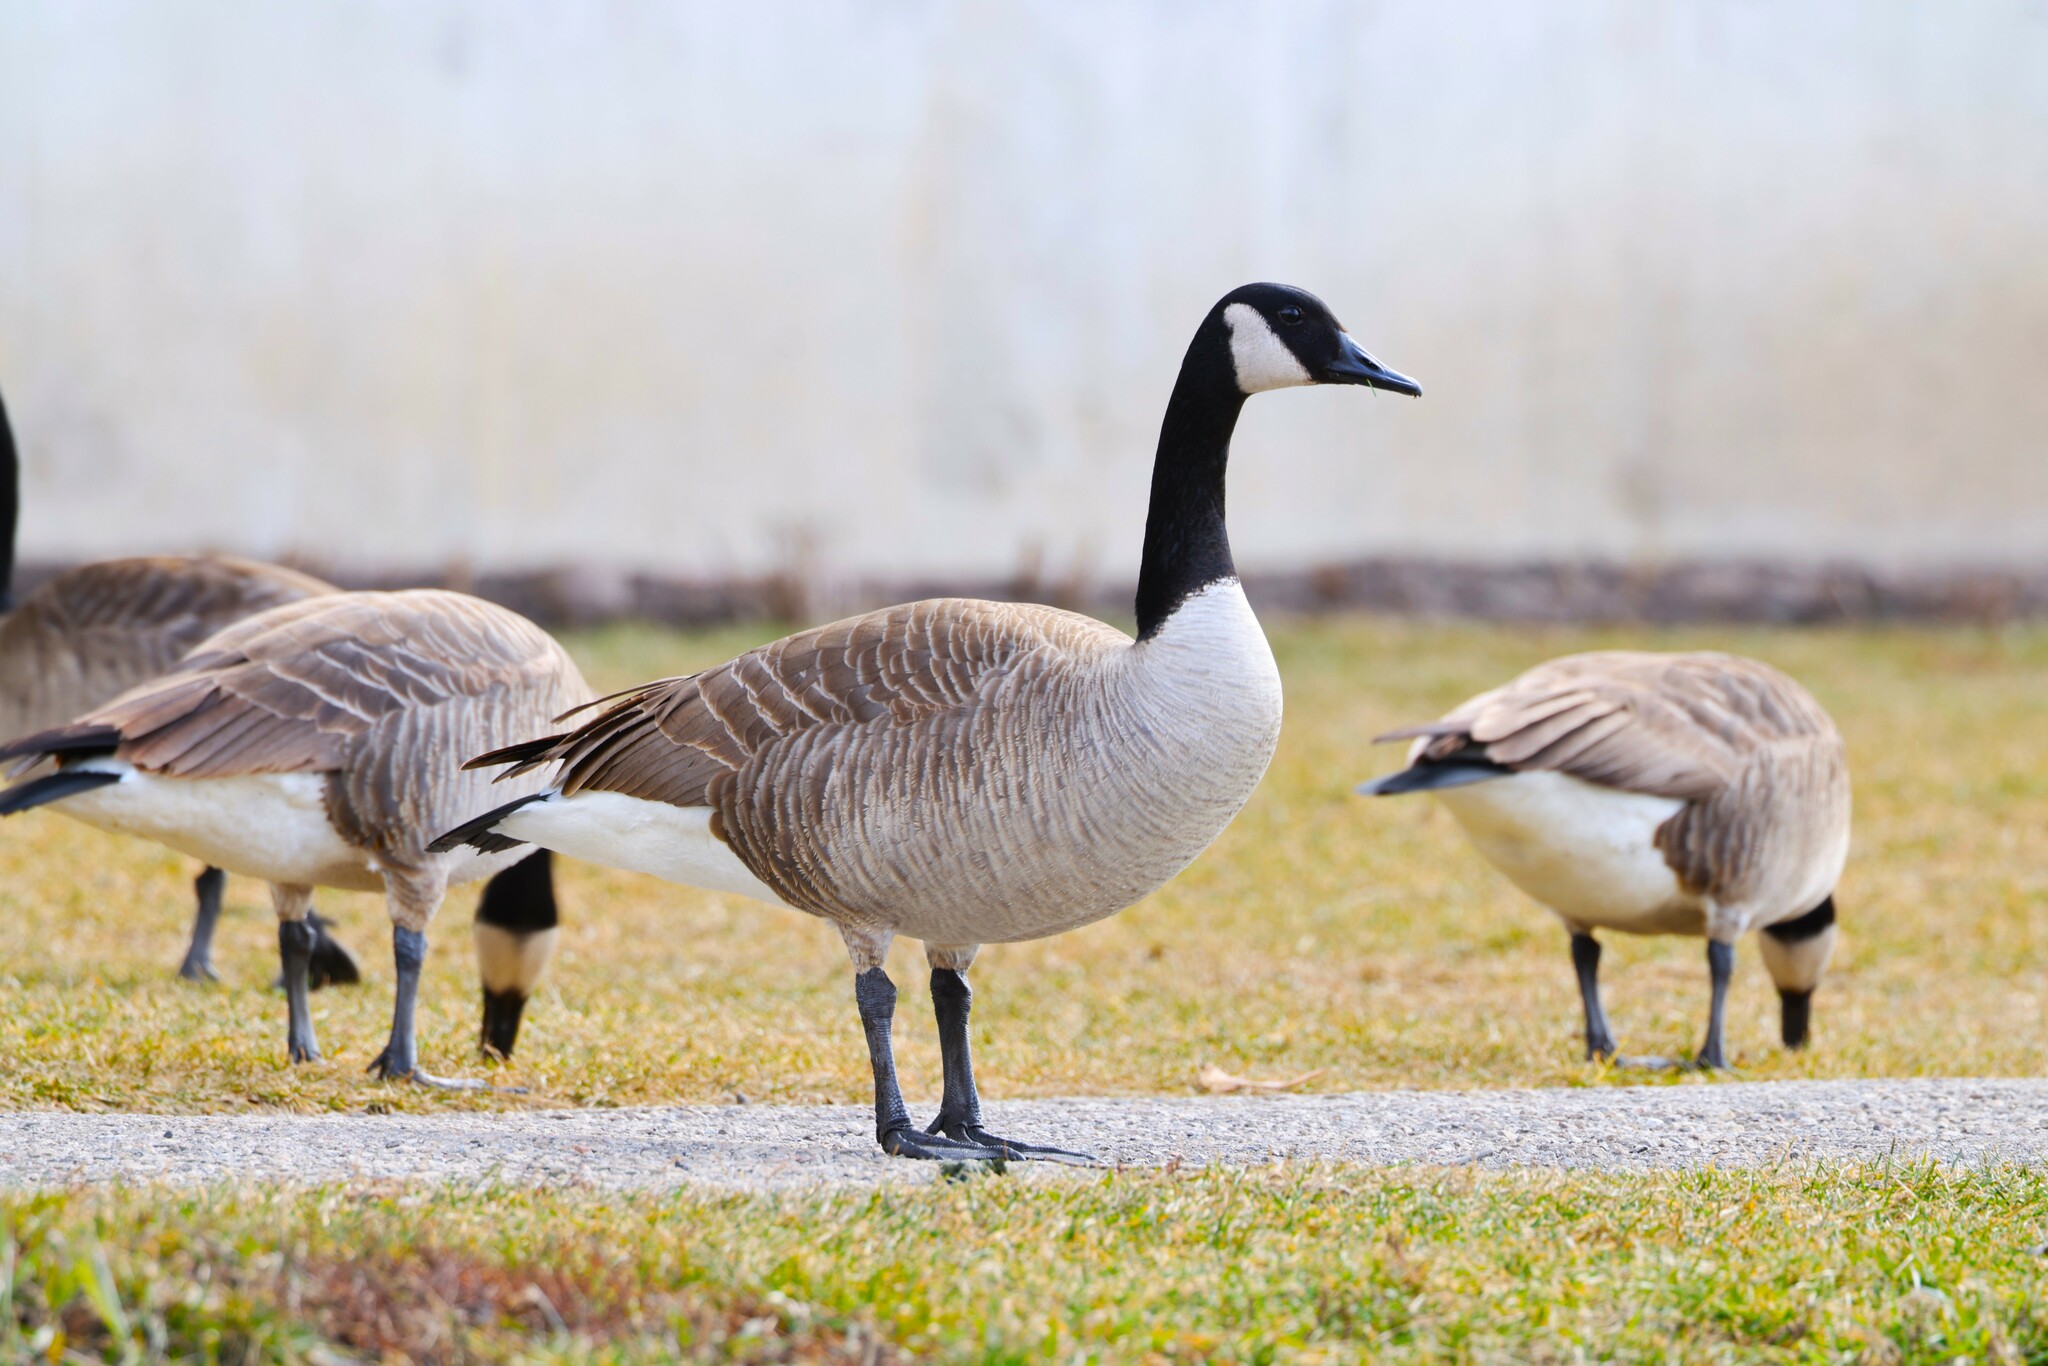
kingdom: Animalia
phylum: Chordata
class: Aves
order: Anseriformes
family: Anatidae
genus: Branta
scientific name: Branta canadensis
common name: Canada goose
